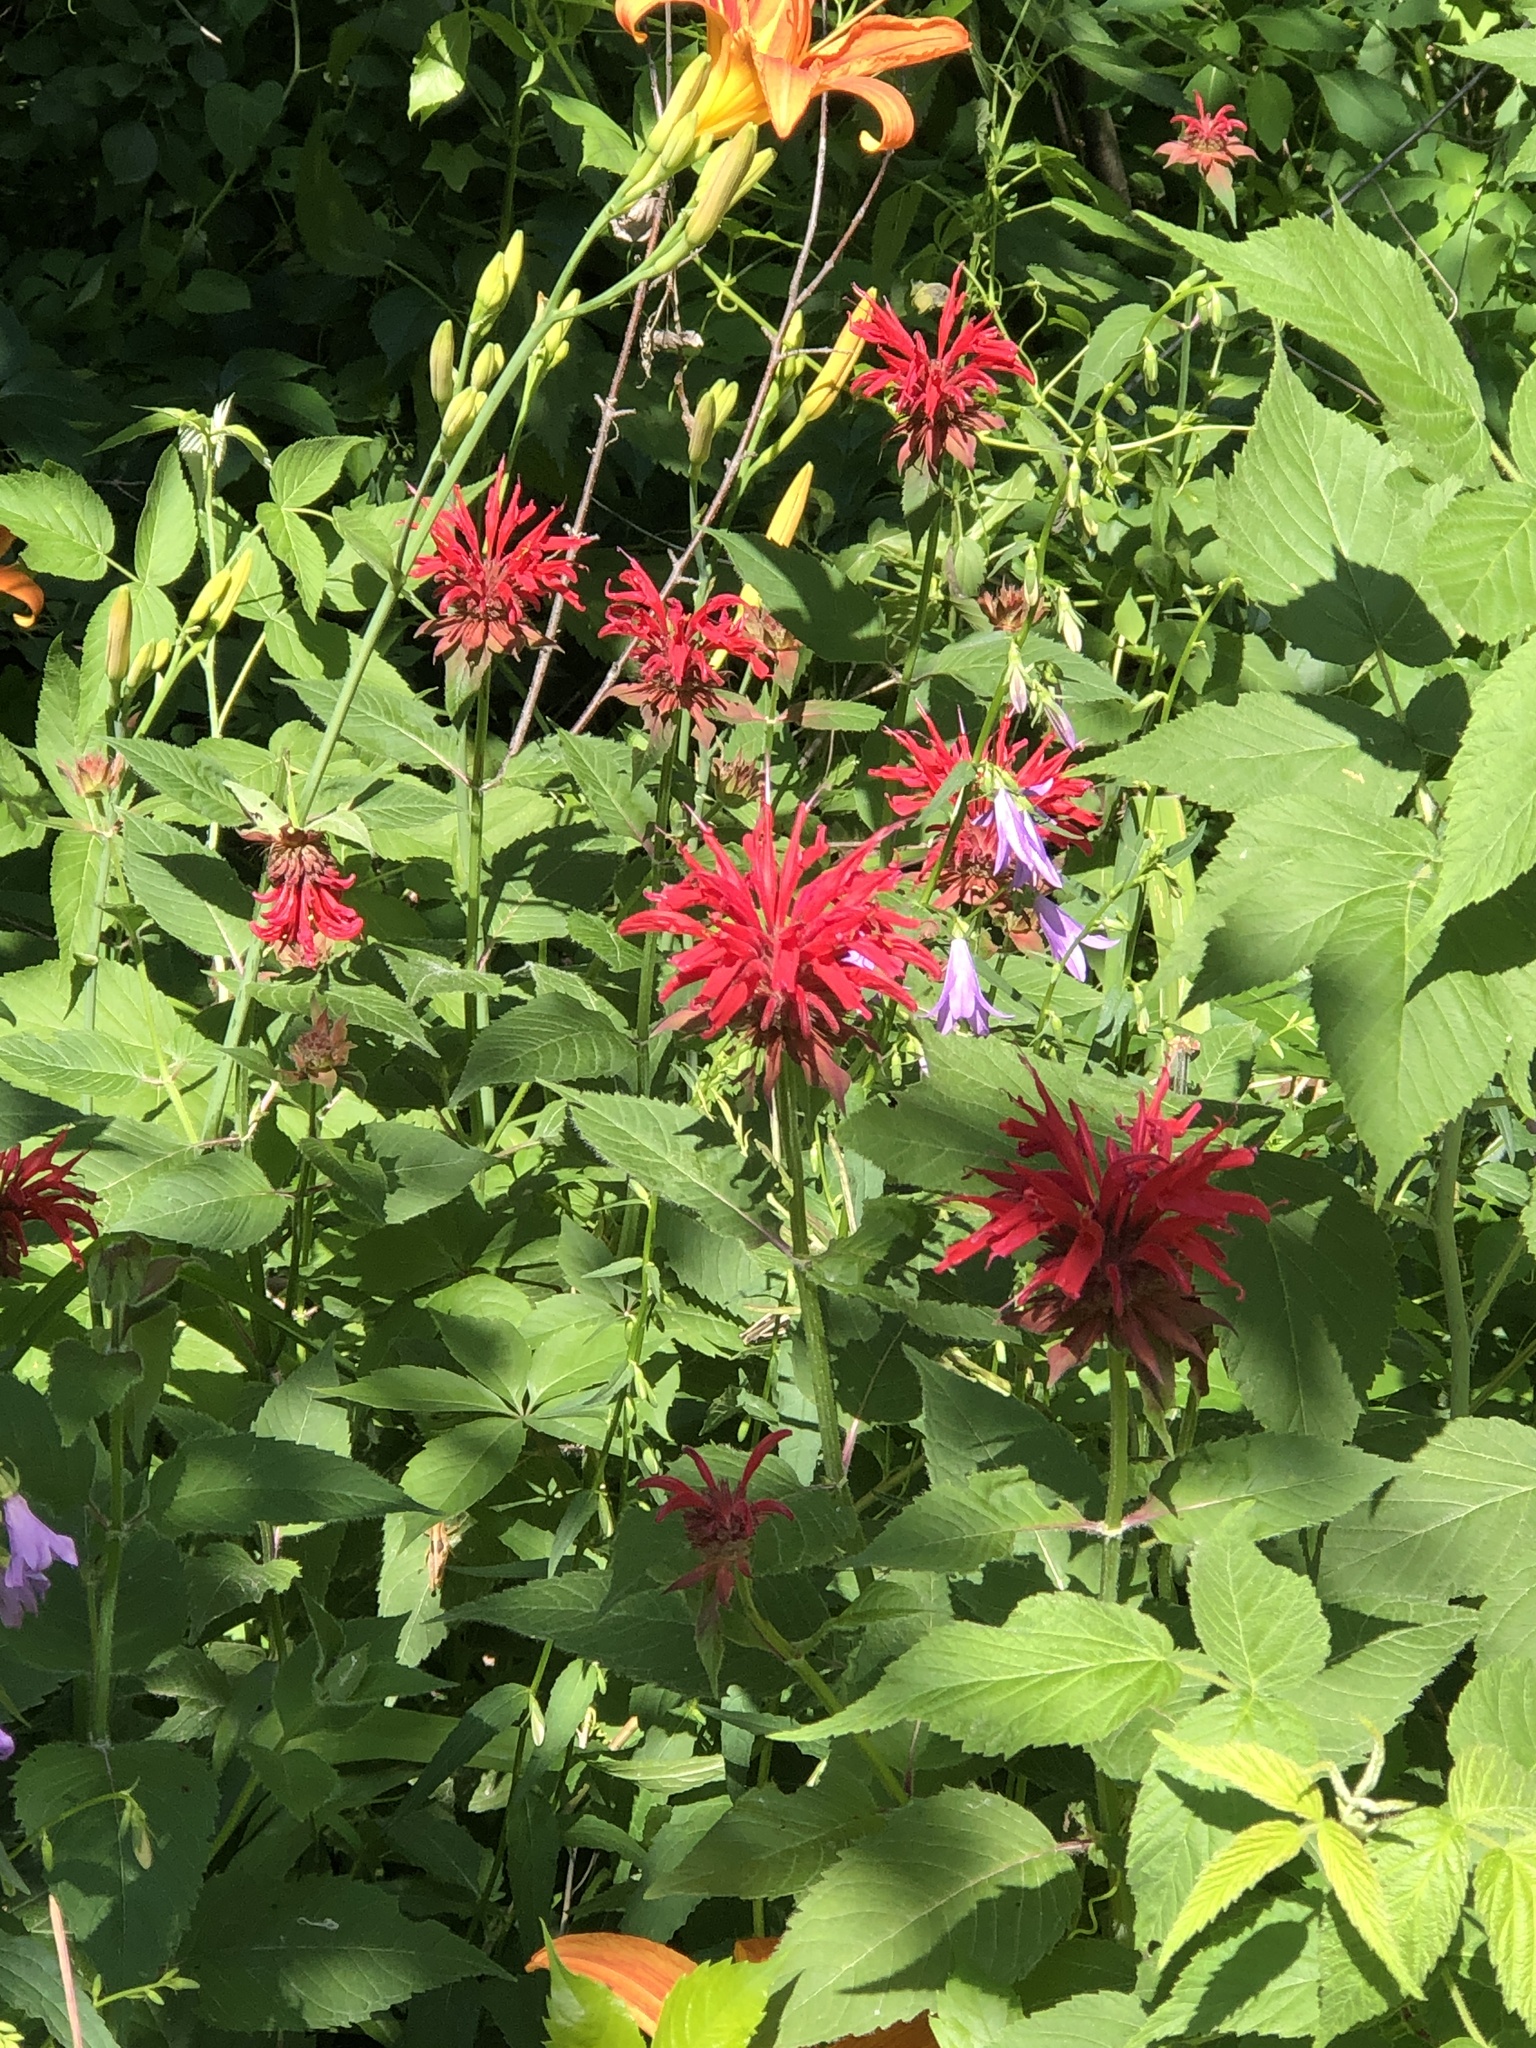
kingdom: Plantae
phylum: Tracheophyta
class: Magnoliopsida
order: Lamiales
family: Lamiaceae
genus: Monarda
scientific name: Monarda didyma
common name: Beebalm
